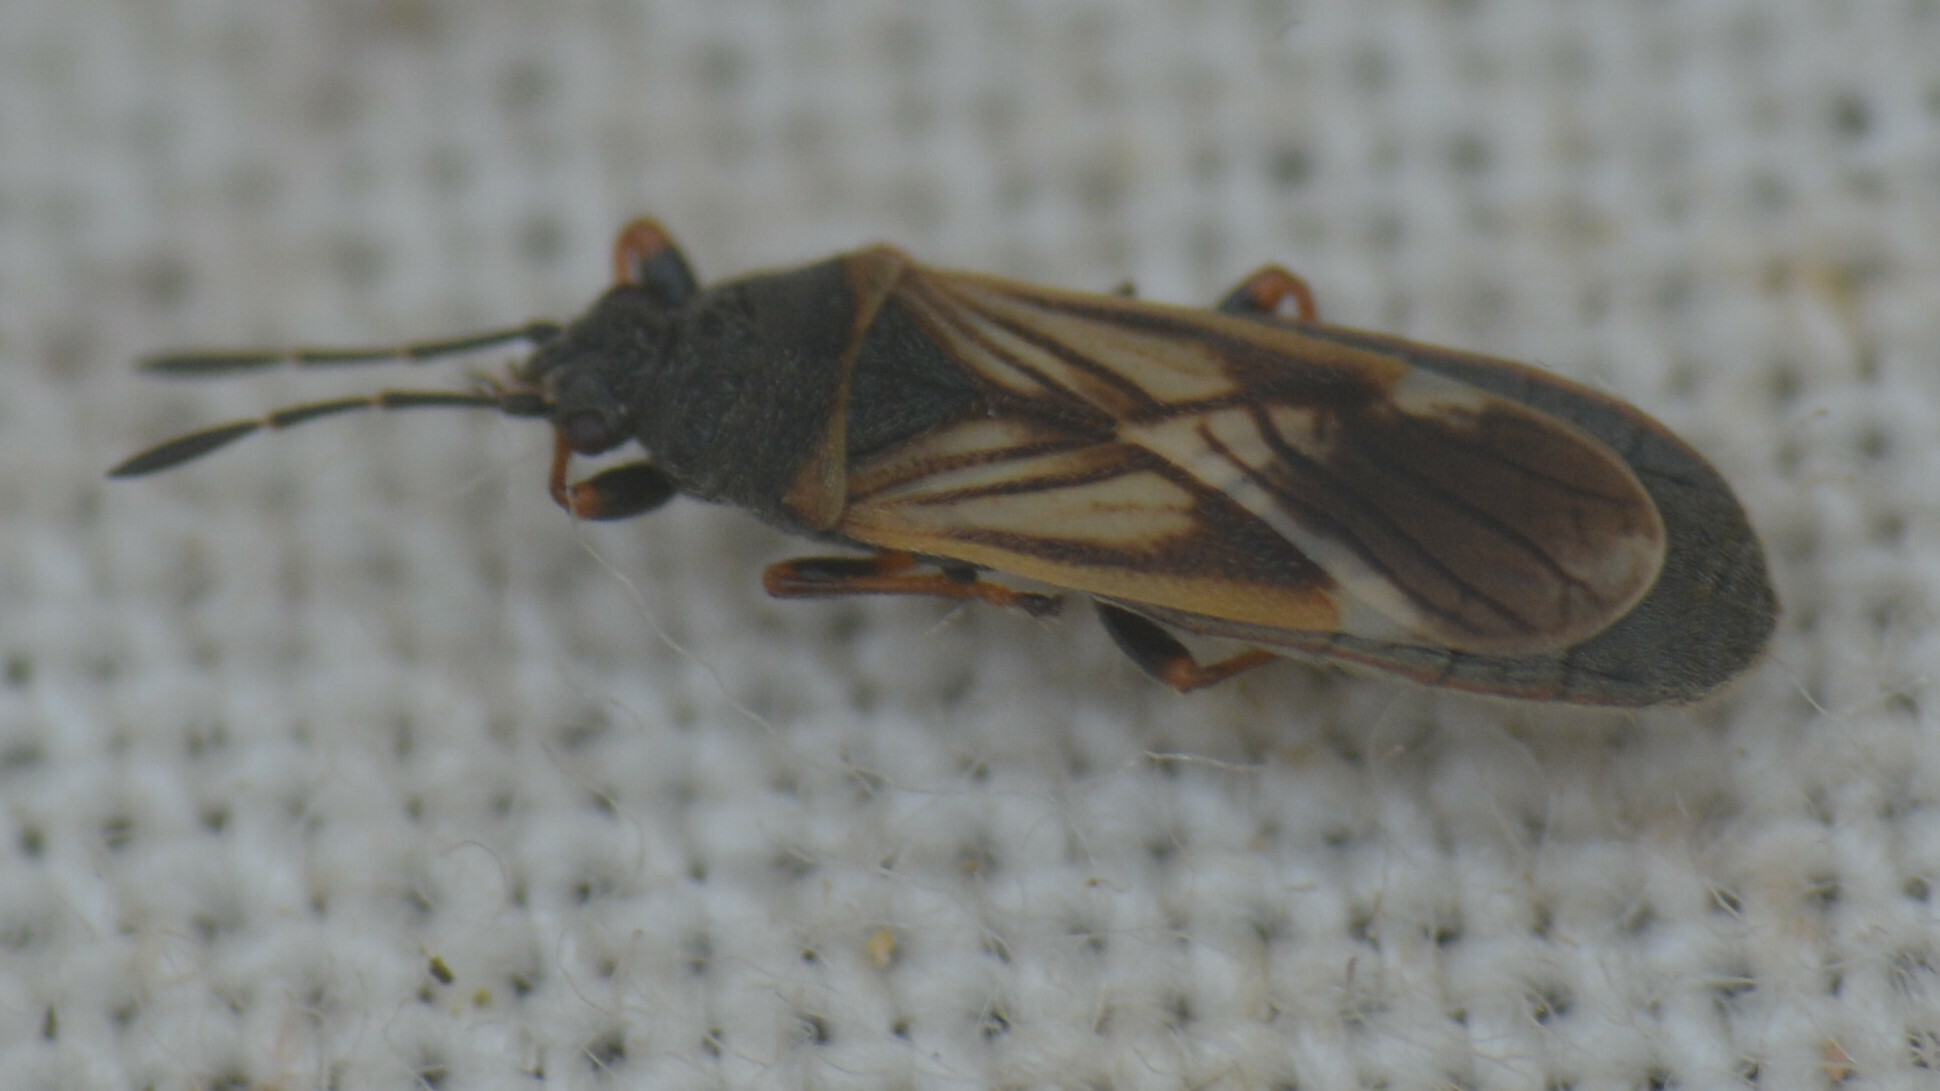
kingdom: Animalia
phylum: Arthropoda
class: Insecta
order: Hemiptera
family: Blissidae
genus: Ischnodemus
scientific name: Ischnodemus sabuleti
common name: European cinchbug
